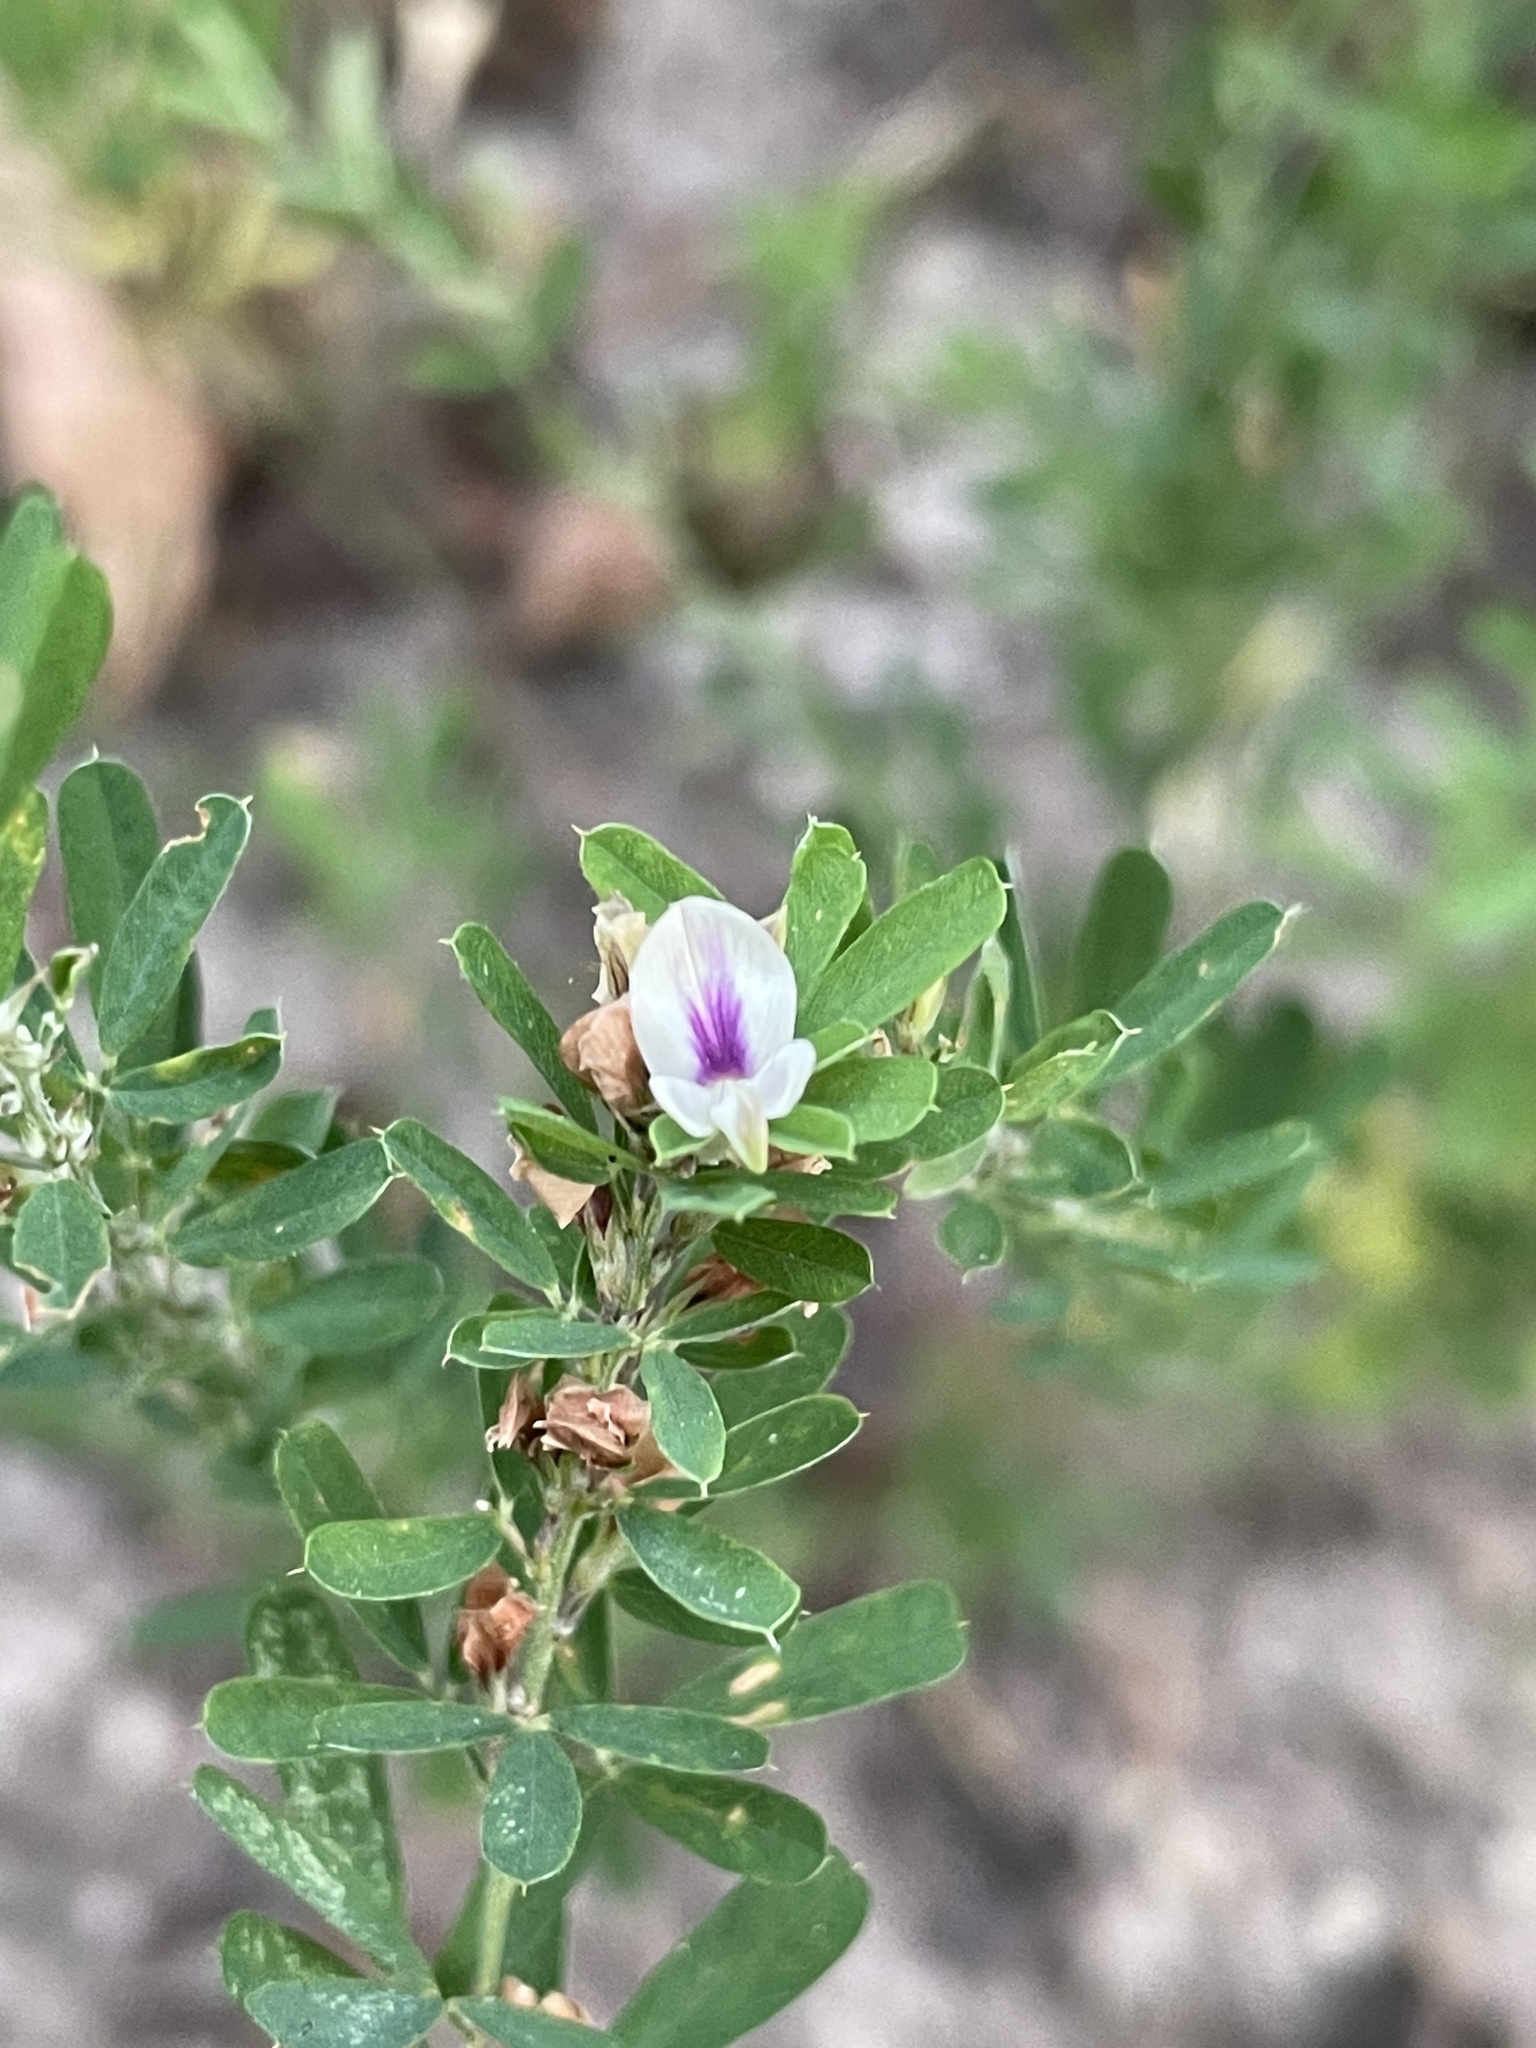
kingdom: Plantae
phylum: Tracheophyta
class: Magnoliopsida
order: Fabales
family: Fabaceae
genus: Lespedeza
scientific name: Lespedeza cuneata
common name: Chinese bush-clover
